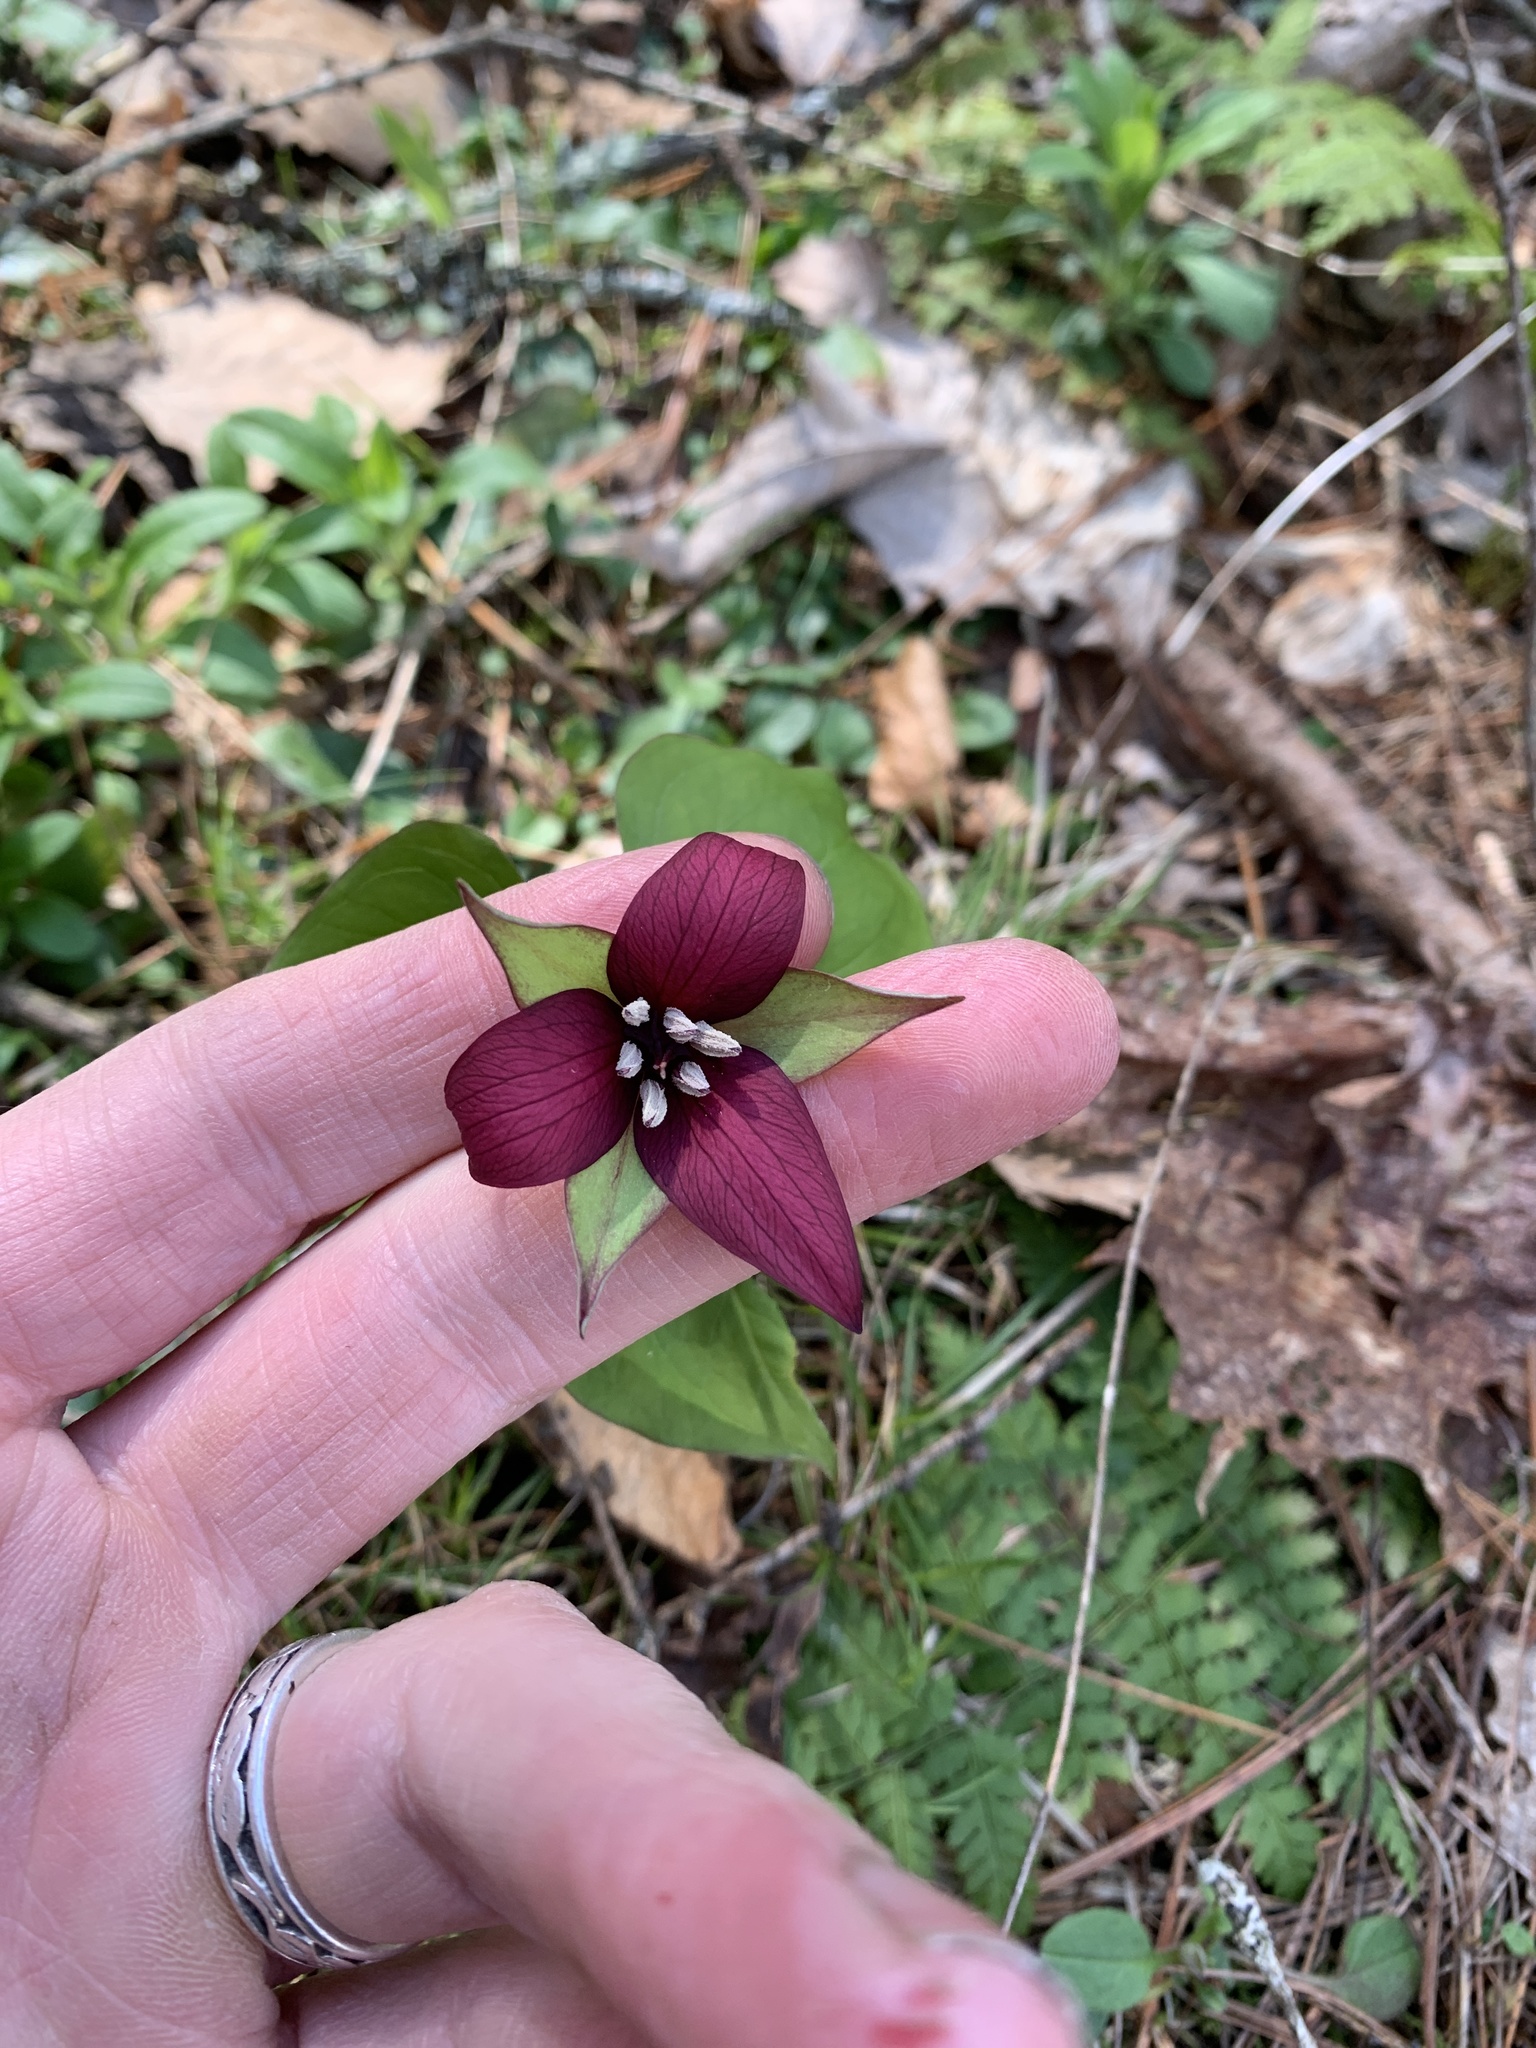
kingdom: Plantae
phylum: Tracheophyta
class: Liliopsida
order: Liliales
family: Melanthiaceae
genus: Trillium
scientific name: Trillium erectum
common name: Purple trillium
